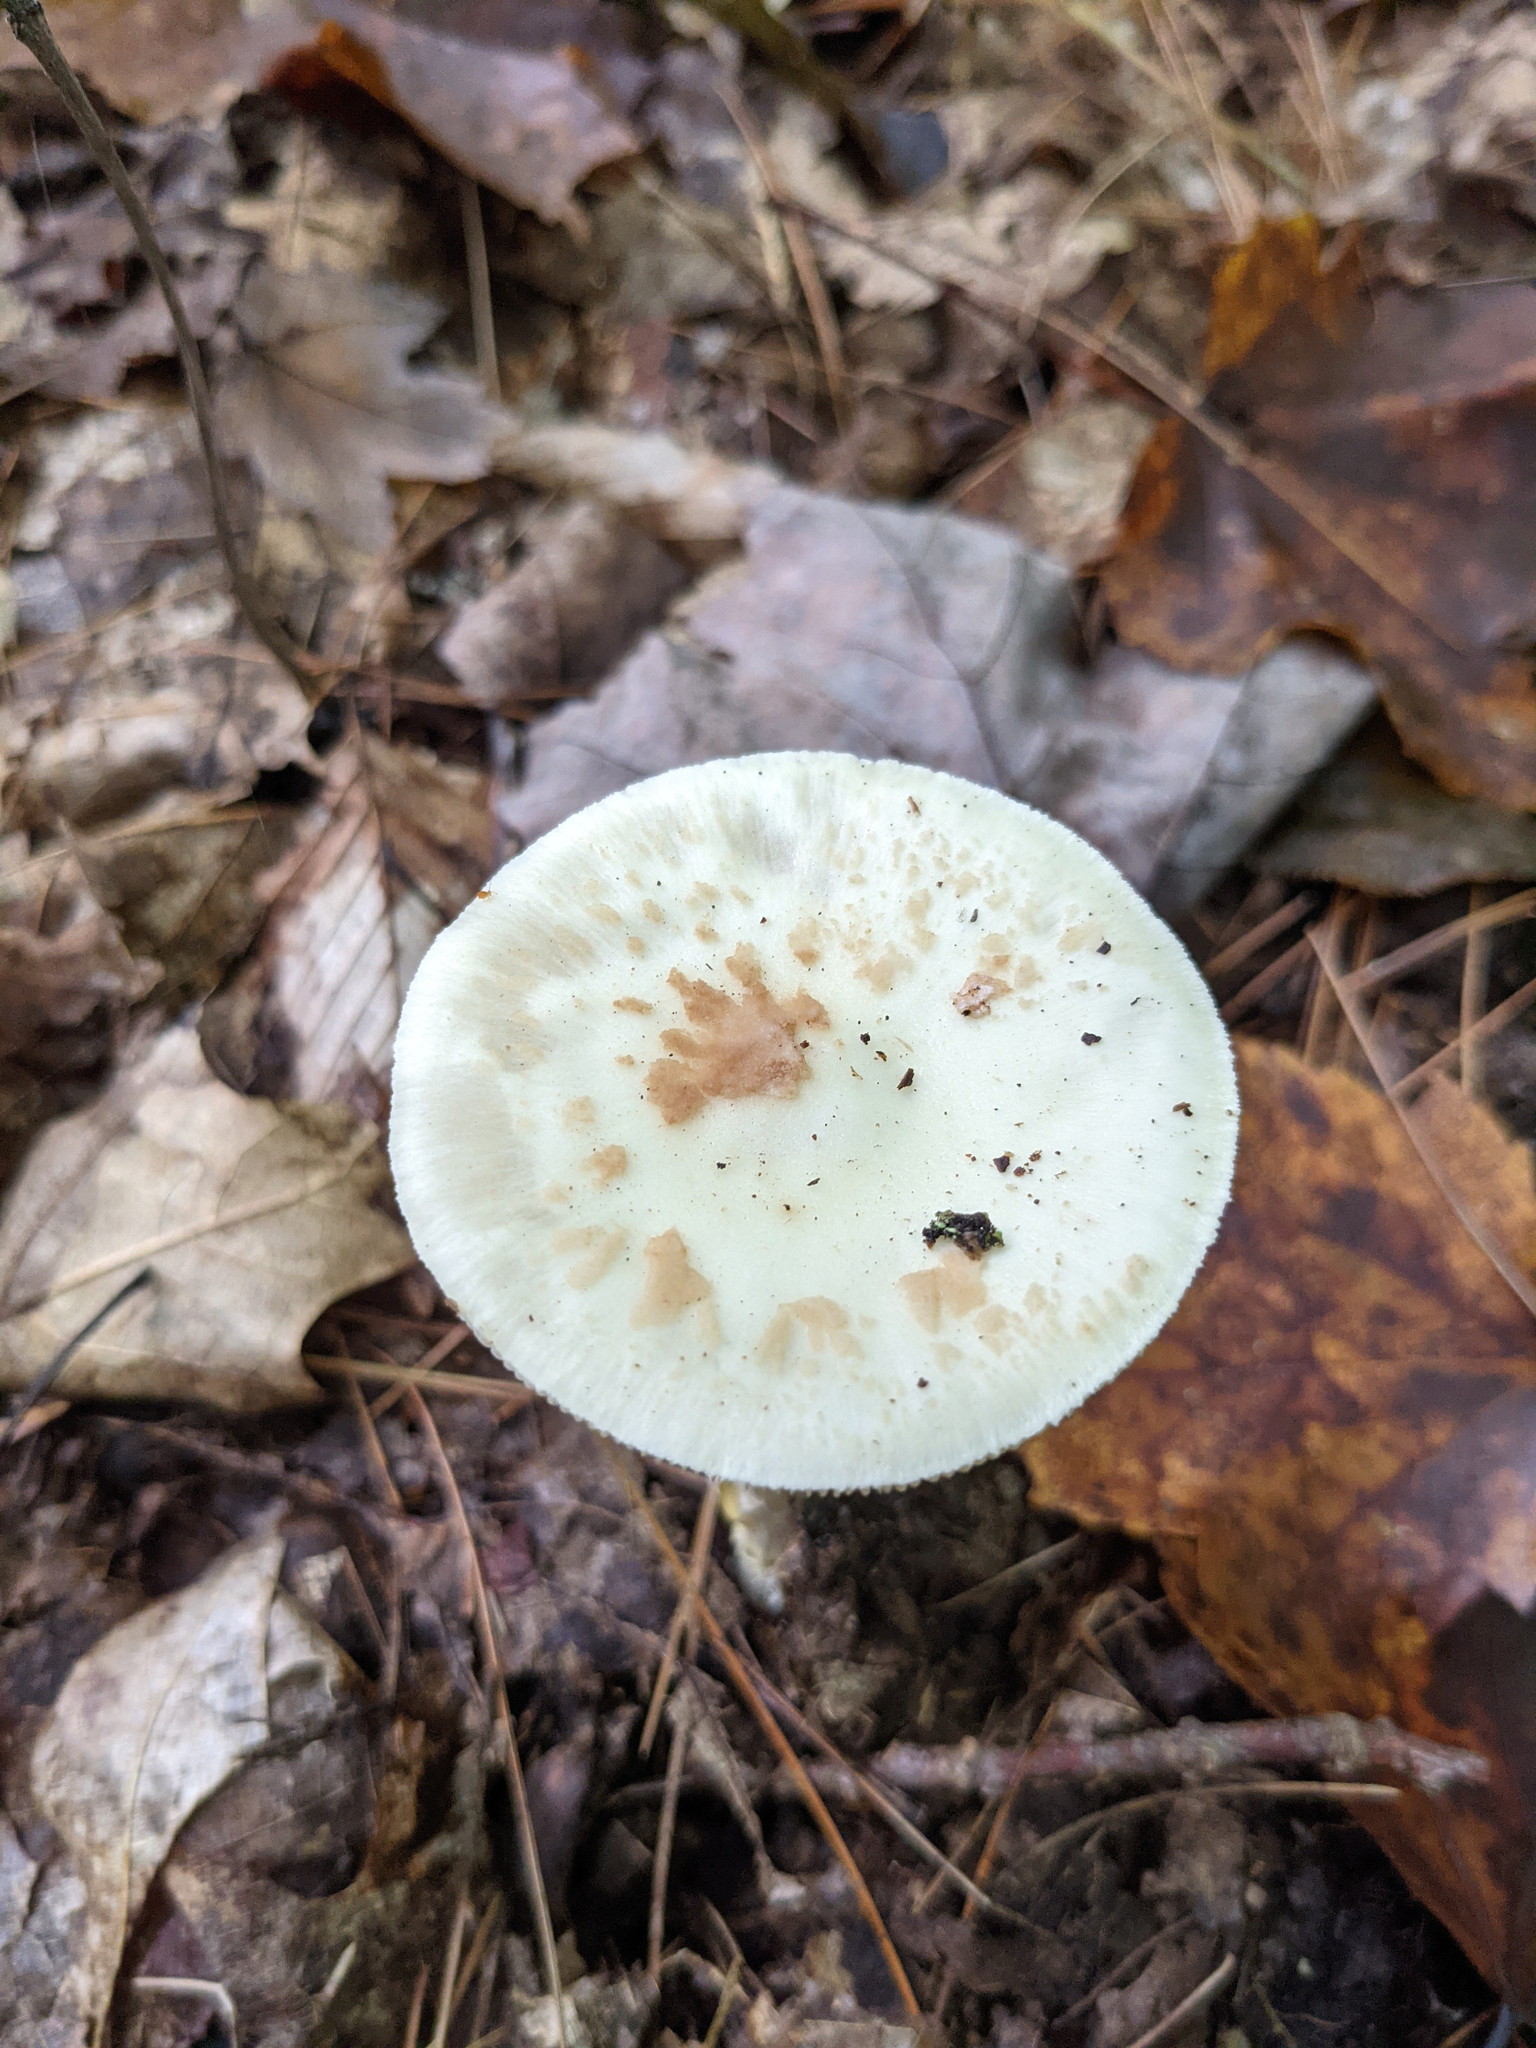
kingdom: Fungi
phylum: Basidiomycota
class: Agaricomycetes
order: Agaricales
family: Amanitaceae
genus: Amanita
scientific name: Amanita lavendula
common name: Coker's lavender staining amanita
